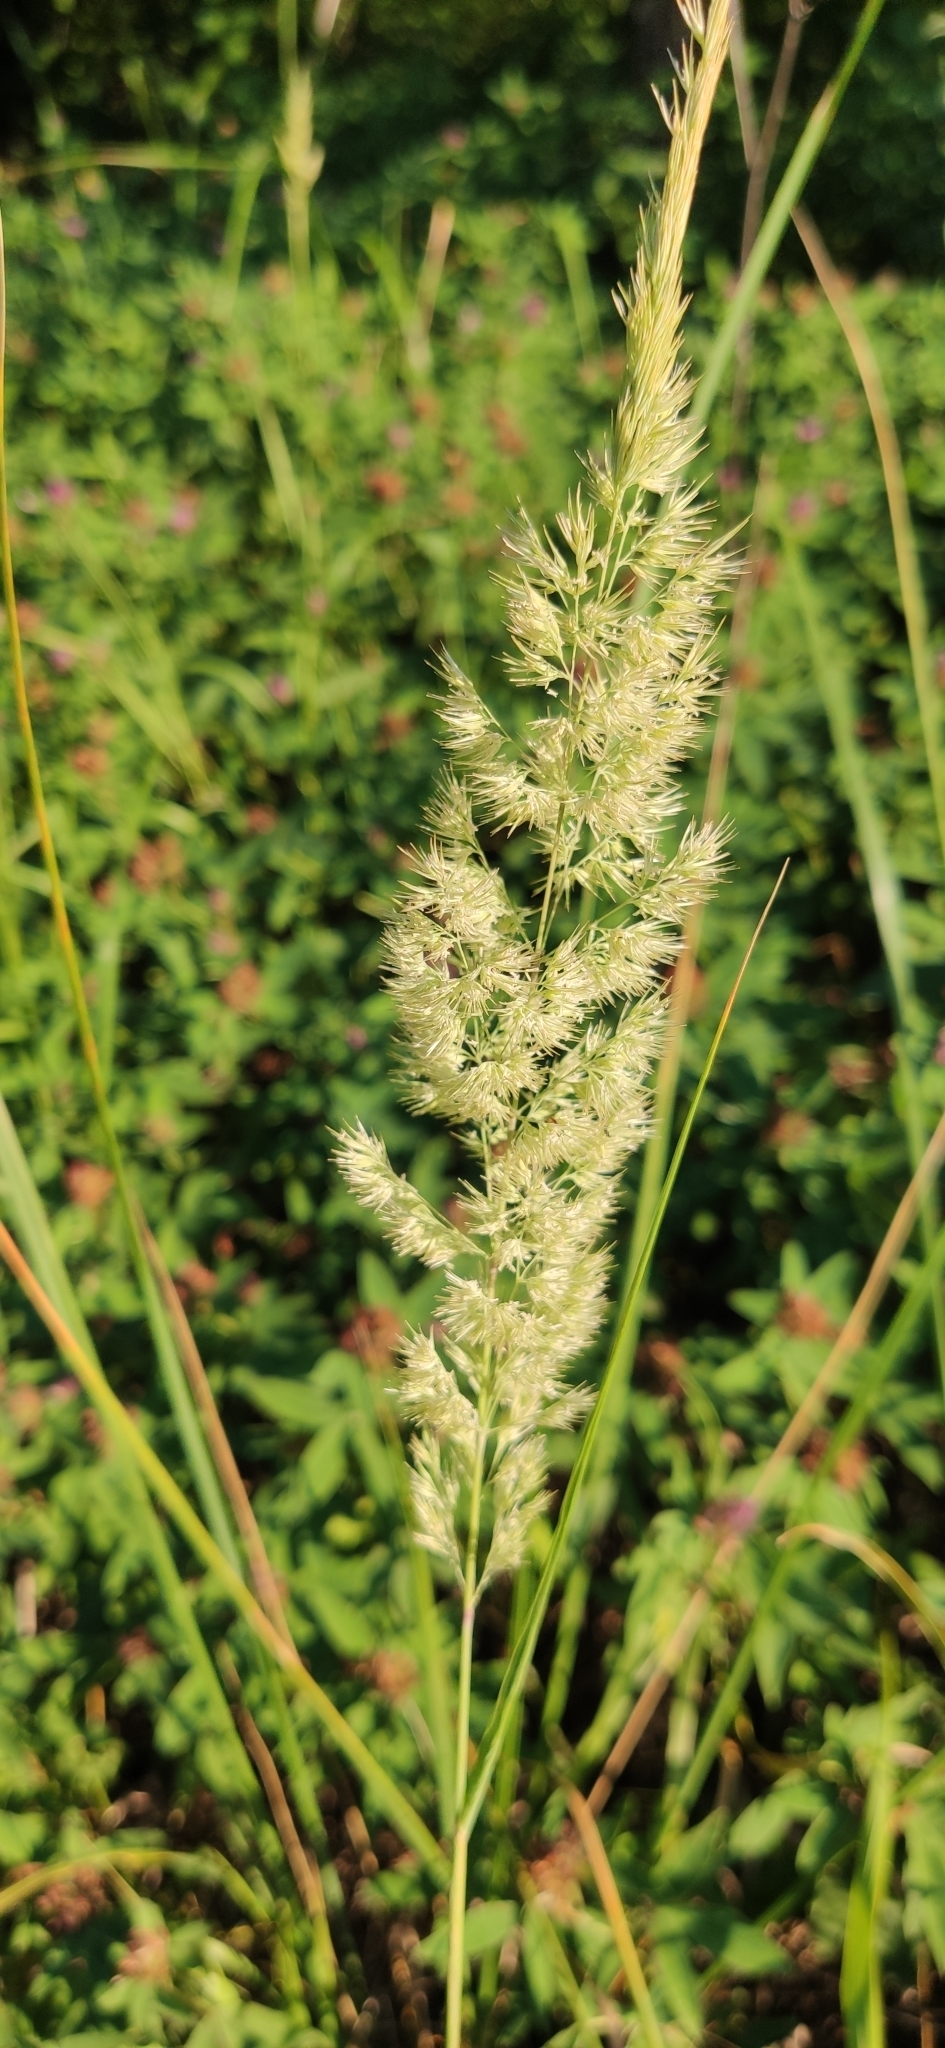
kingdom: Plantae
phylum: Tracheophyta
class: Liliopsida
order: Poales
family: Poaceae
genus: Calamagrostis
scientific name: Calamagrostis epigejos
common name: Wood small-reed
